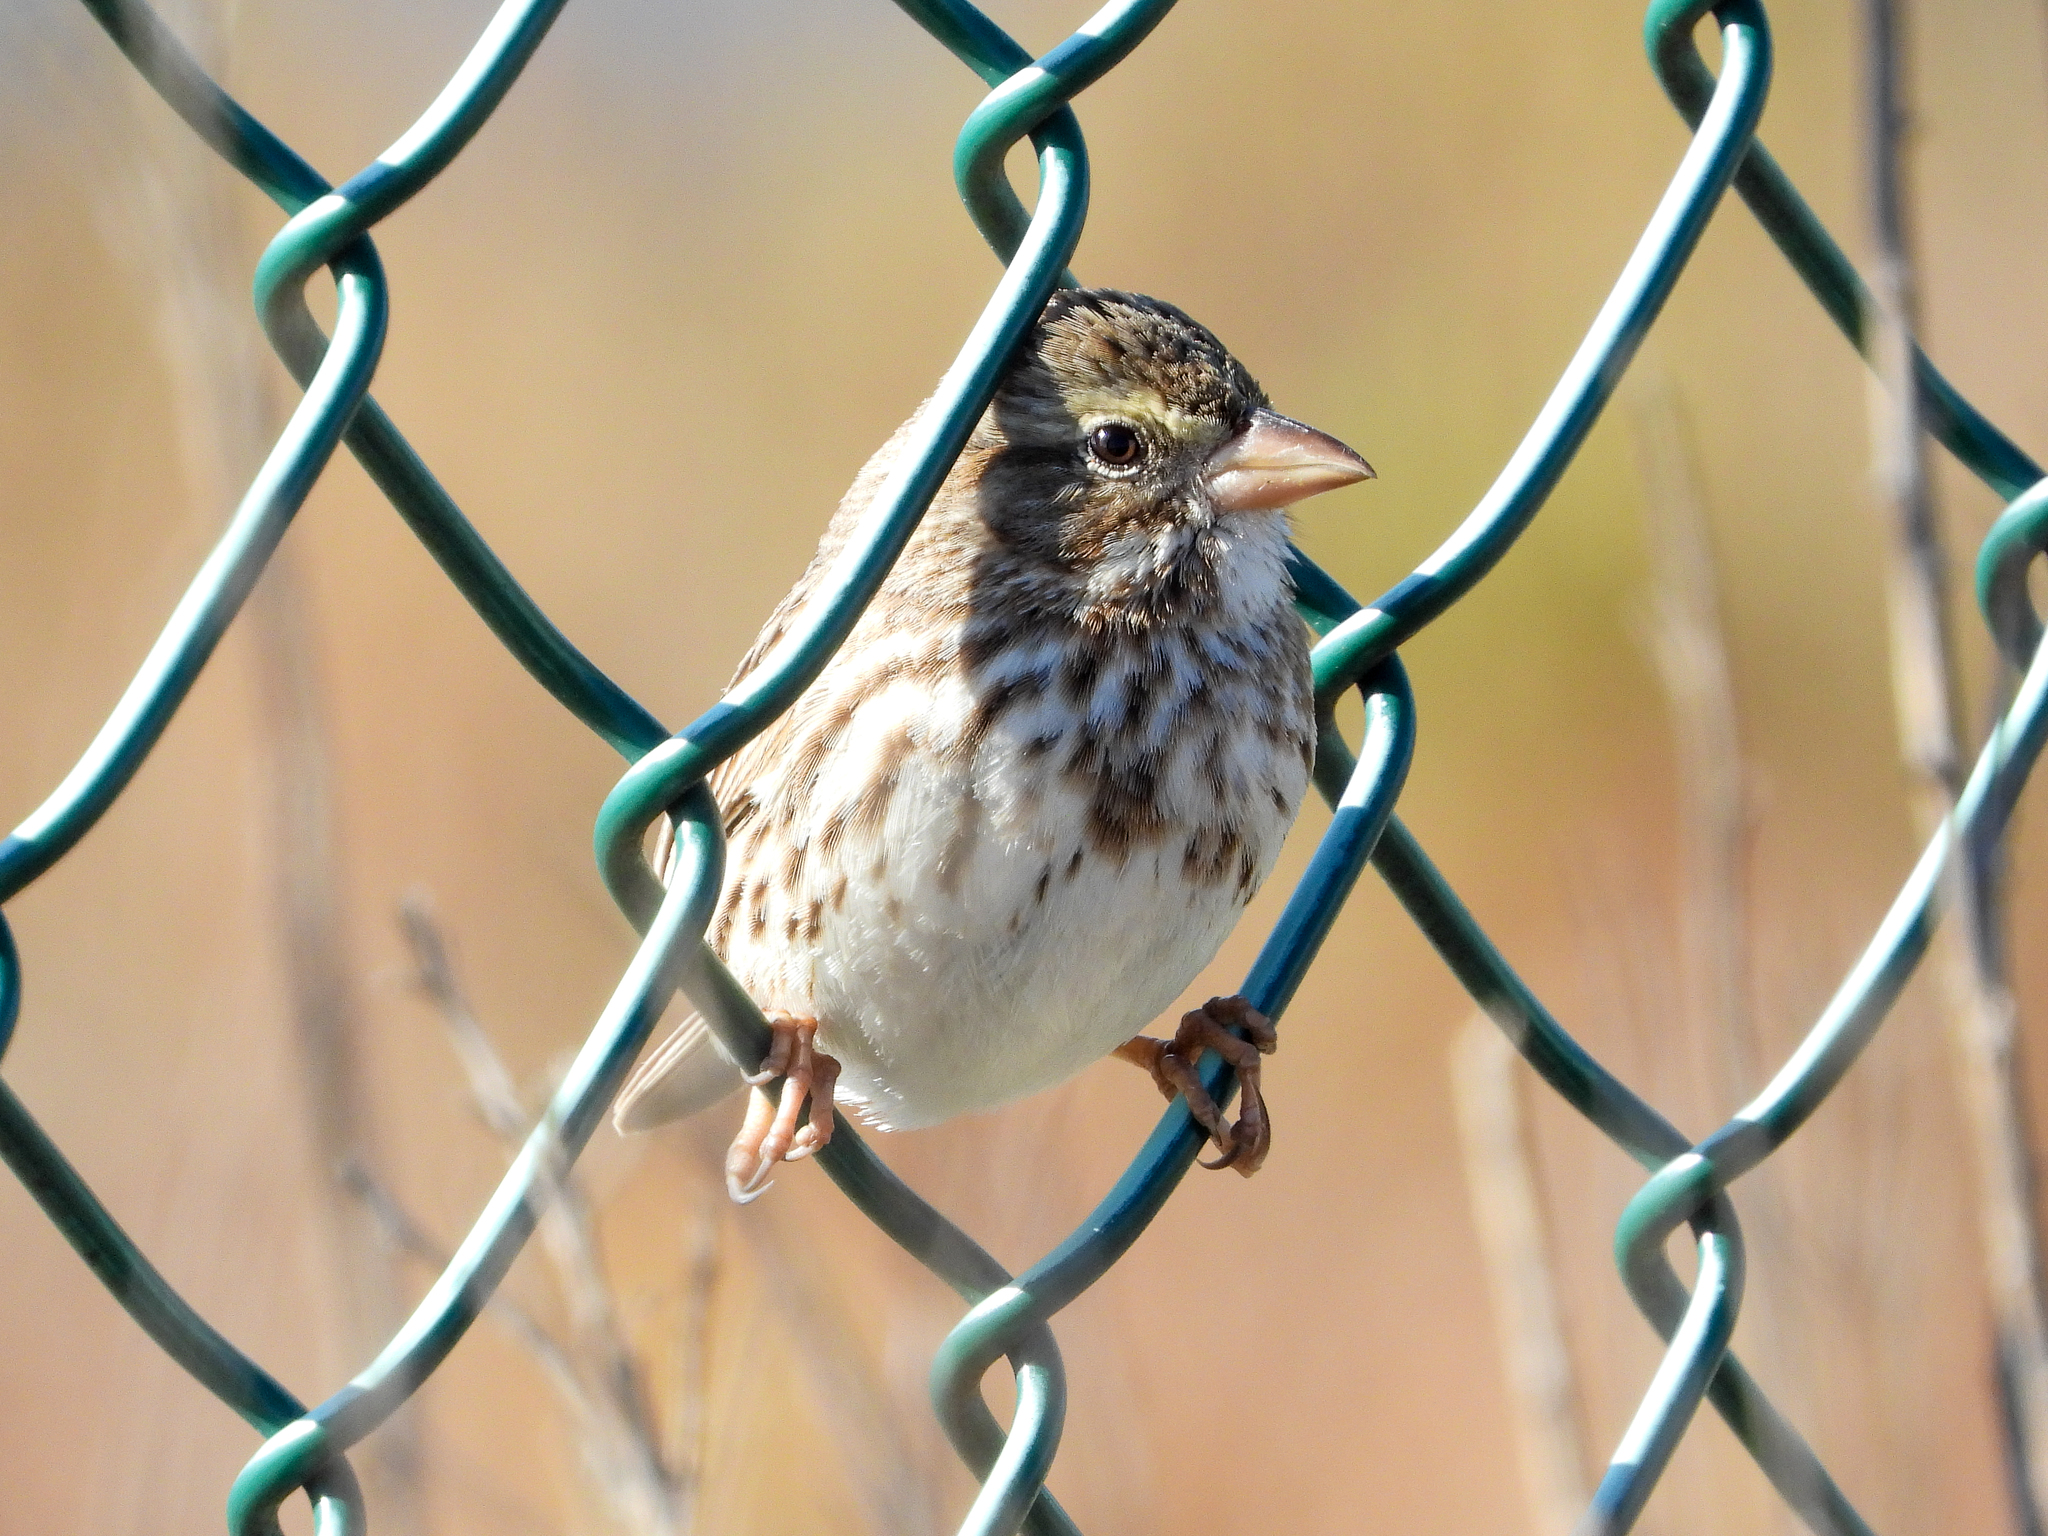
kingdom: Animalia
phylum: Chordata
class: Aves
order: Passeriformes
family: Passerellidae
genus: Passerculus
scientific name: Passerculus sandwichensis
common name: Savannah sparrow
